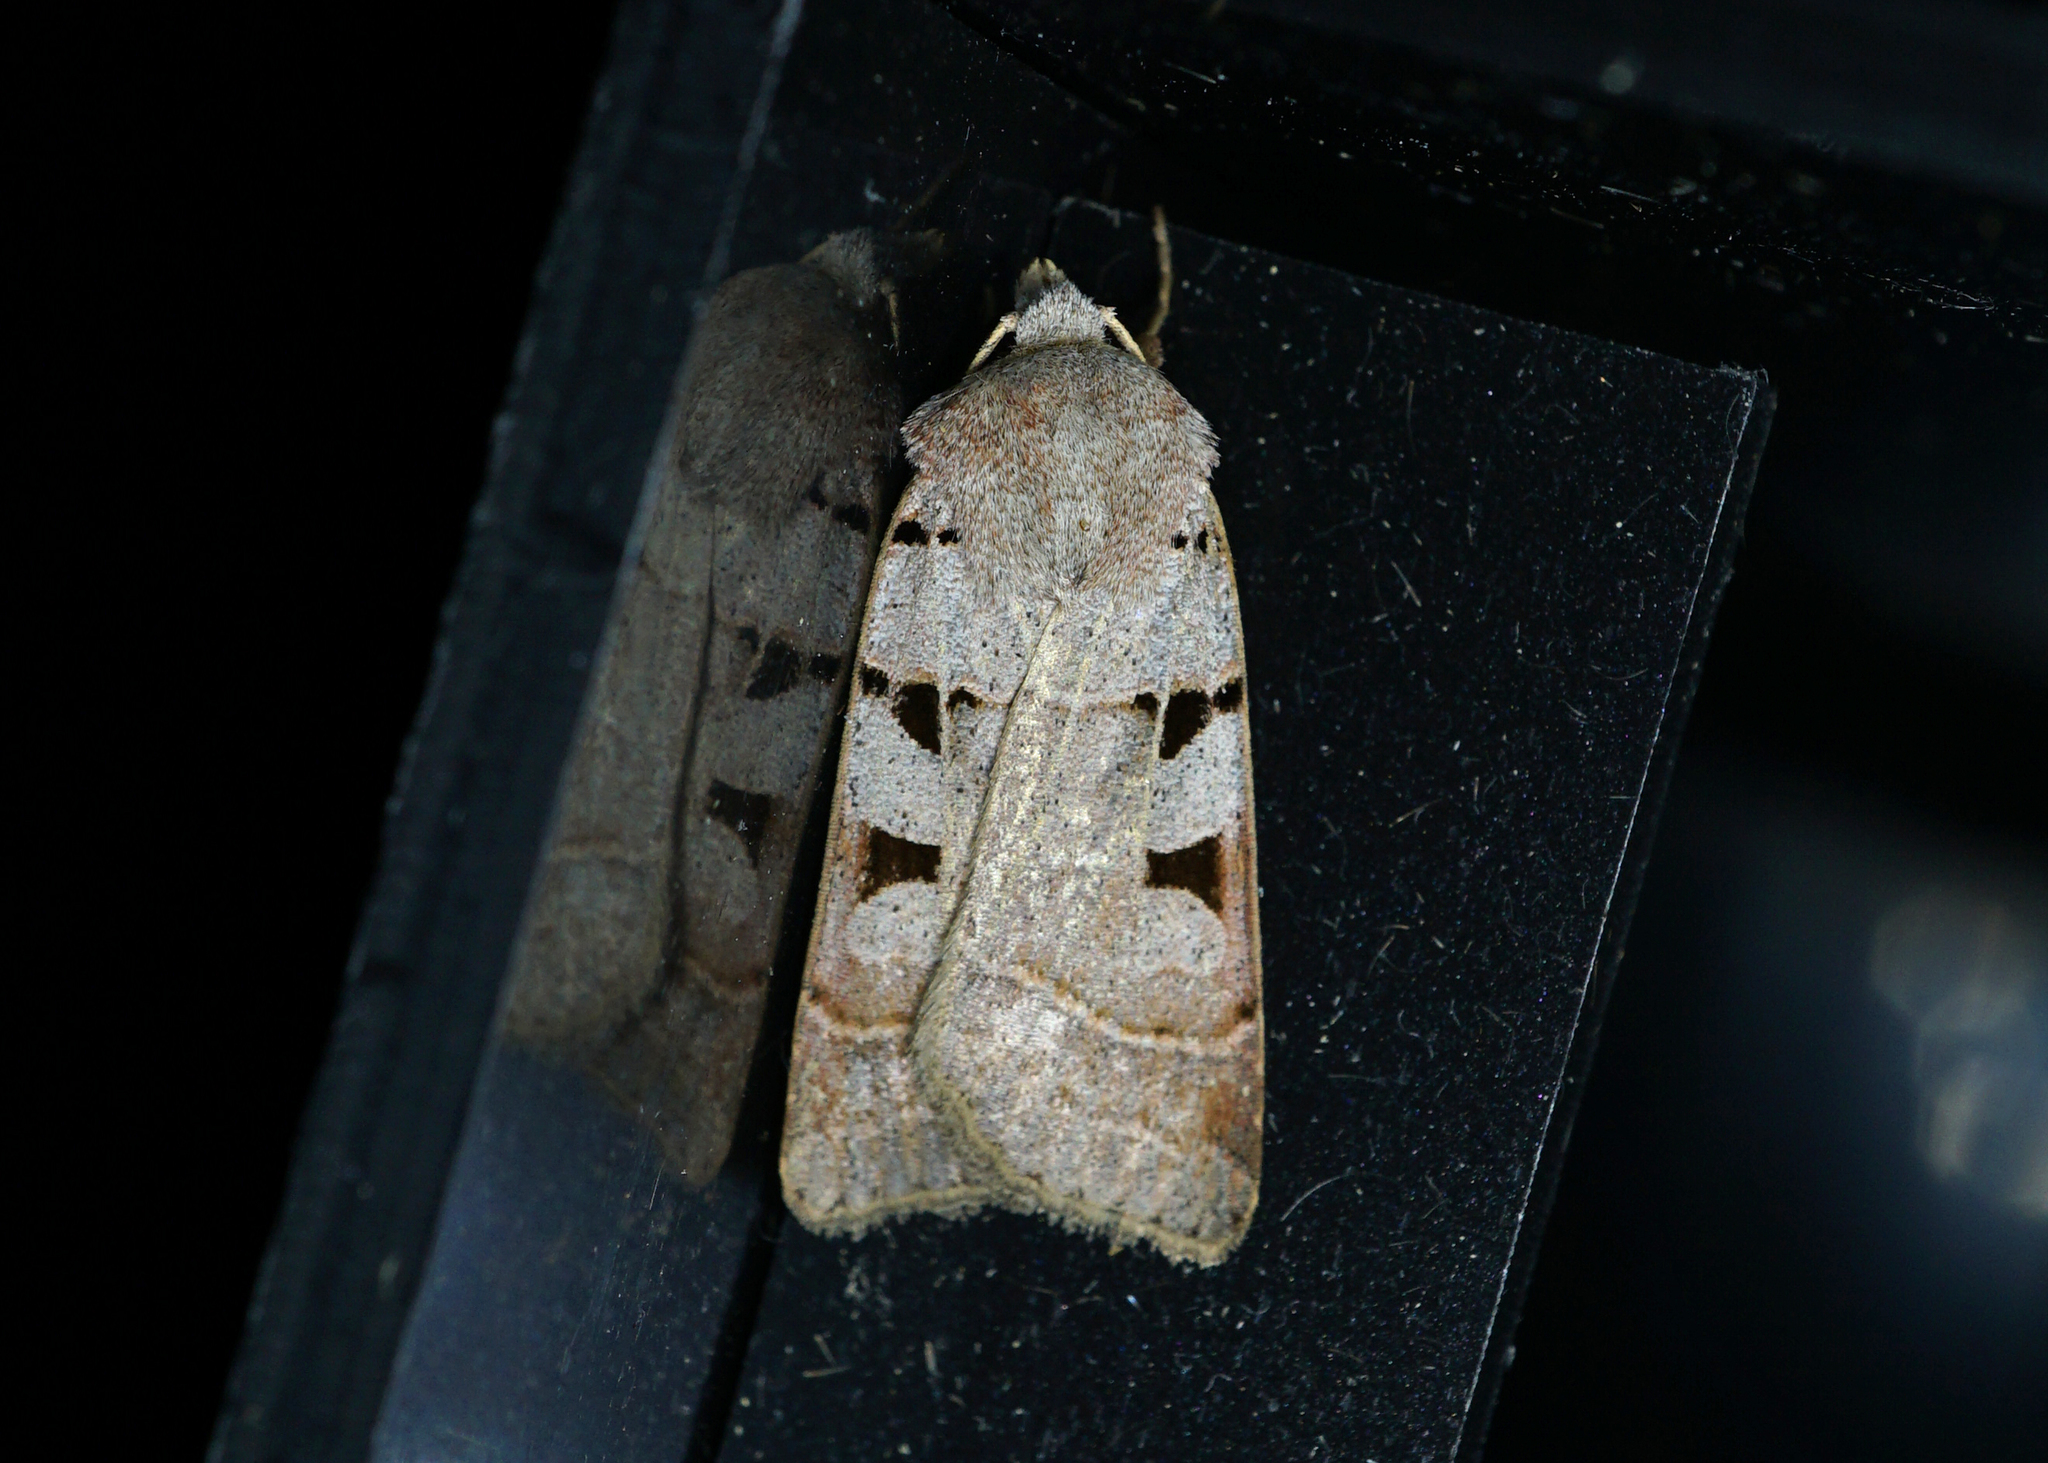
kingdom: Animalia
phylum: Arthropoda
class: Insecta
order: Lepidoptera
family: Noctuidae
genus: Eugnorisma
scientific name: Eugnorisma glareosa
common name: Autumnal rustic
